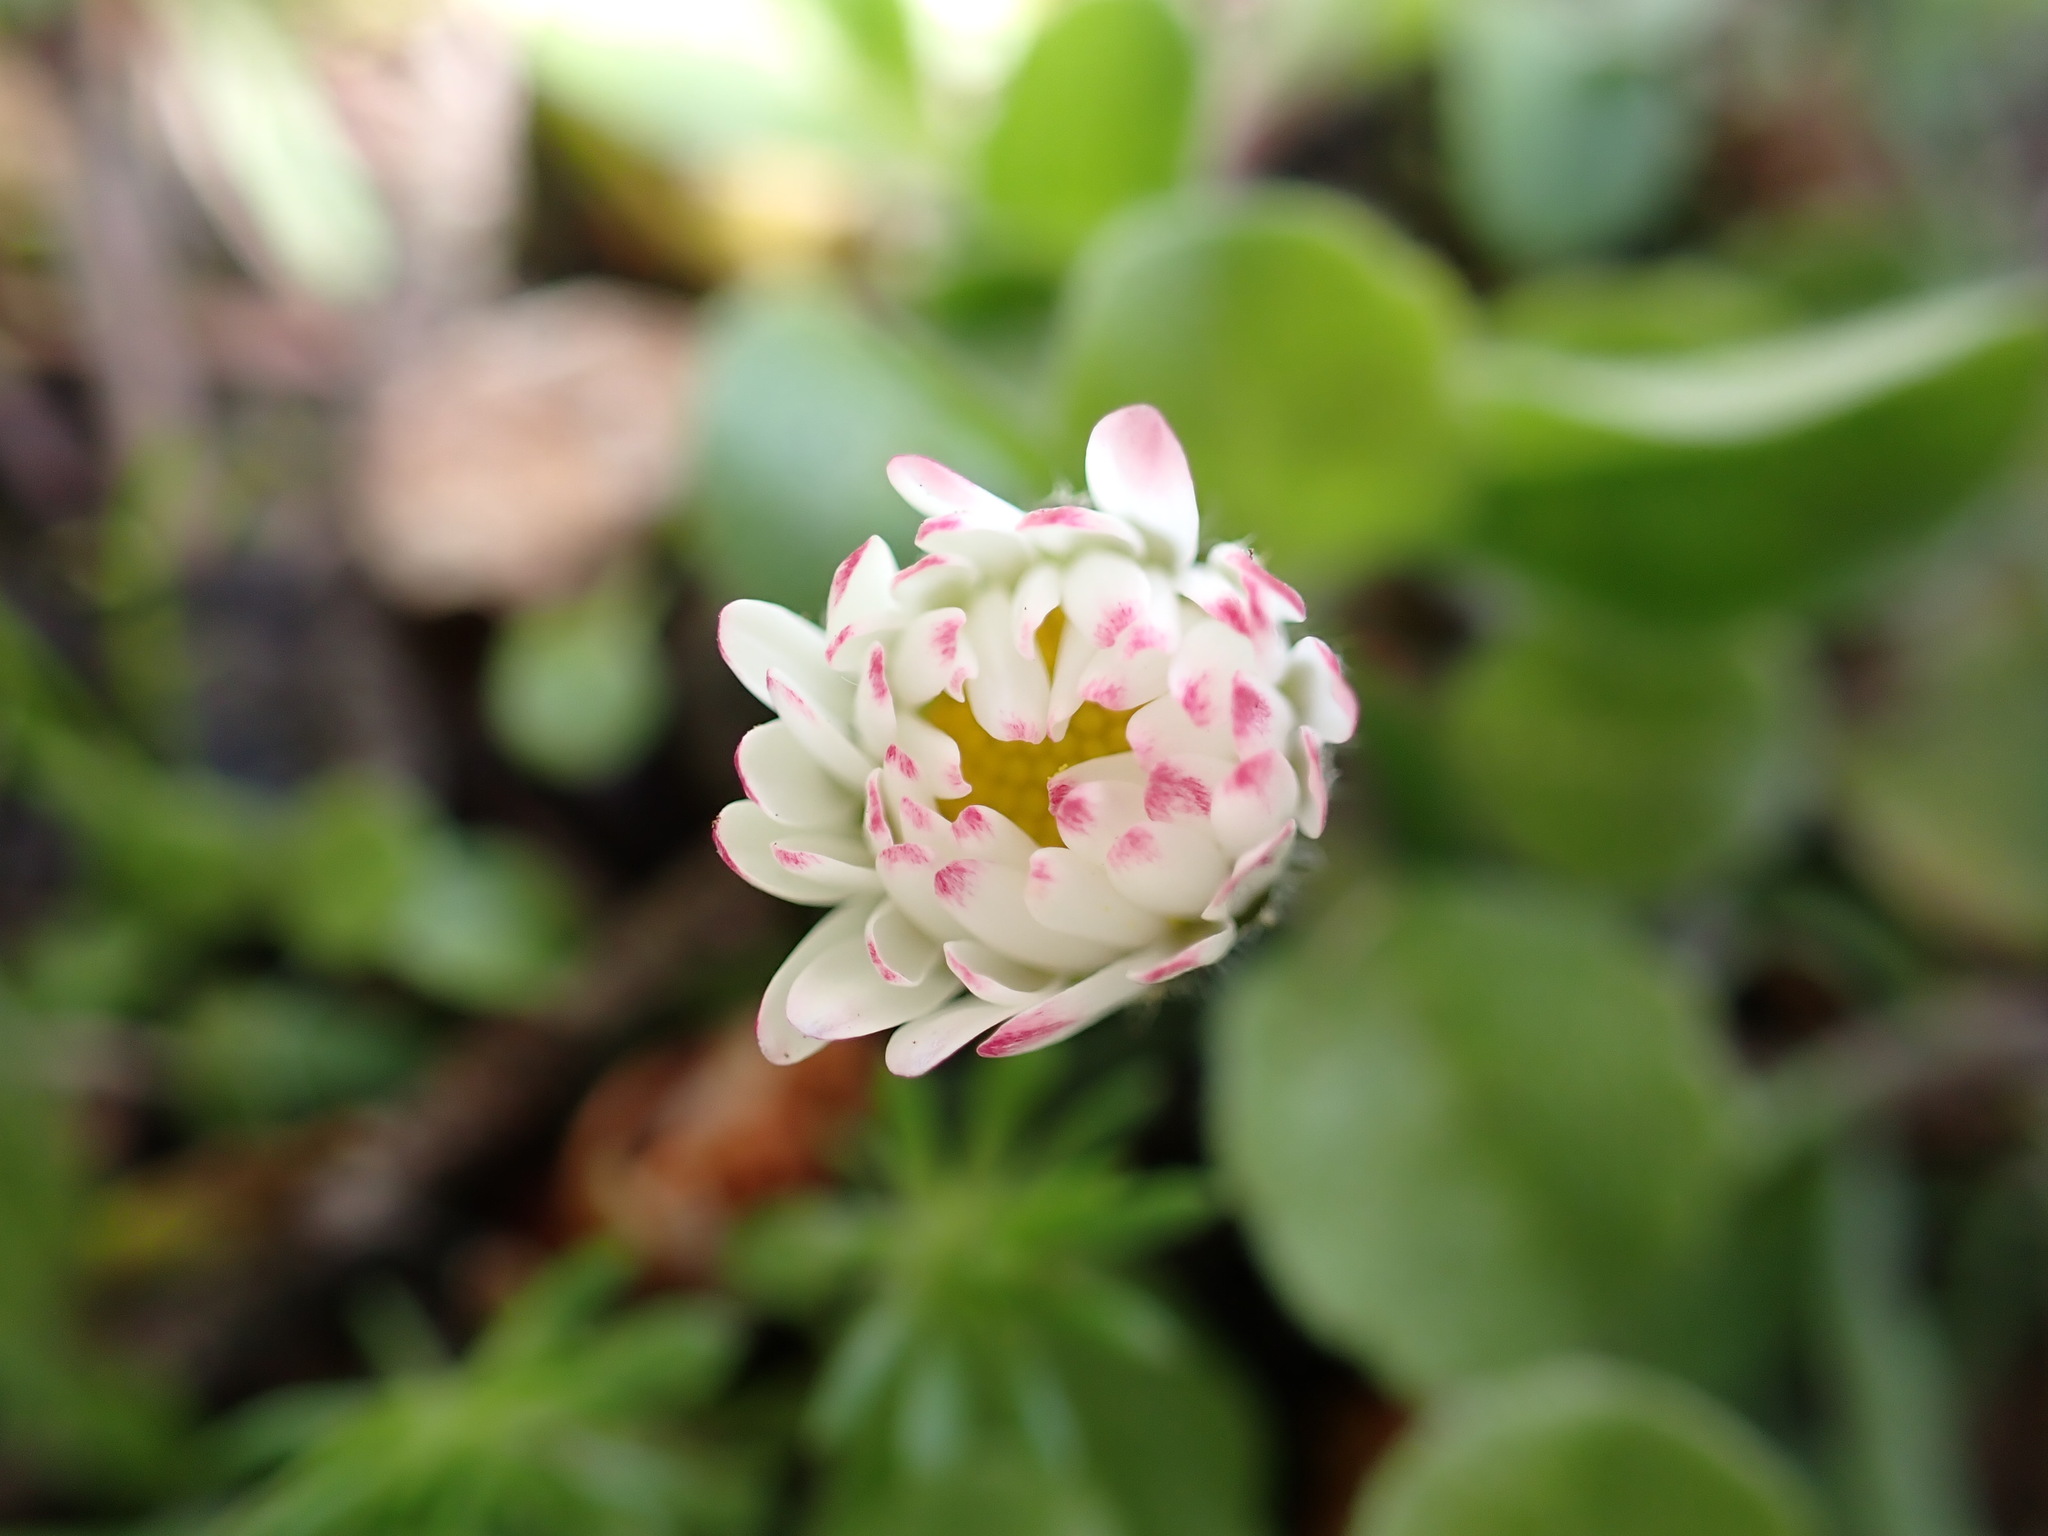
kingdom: Plantae
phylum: Tracheophyta
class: Magnoliopsida
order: Asterales
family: Asteraceae
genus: Bellis
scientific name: Bellis perennis
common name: Lawndaisy
